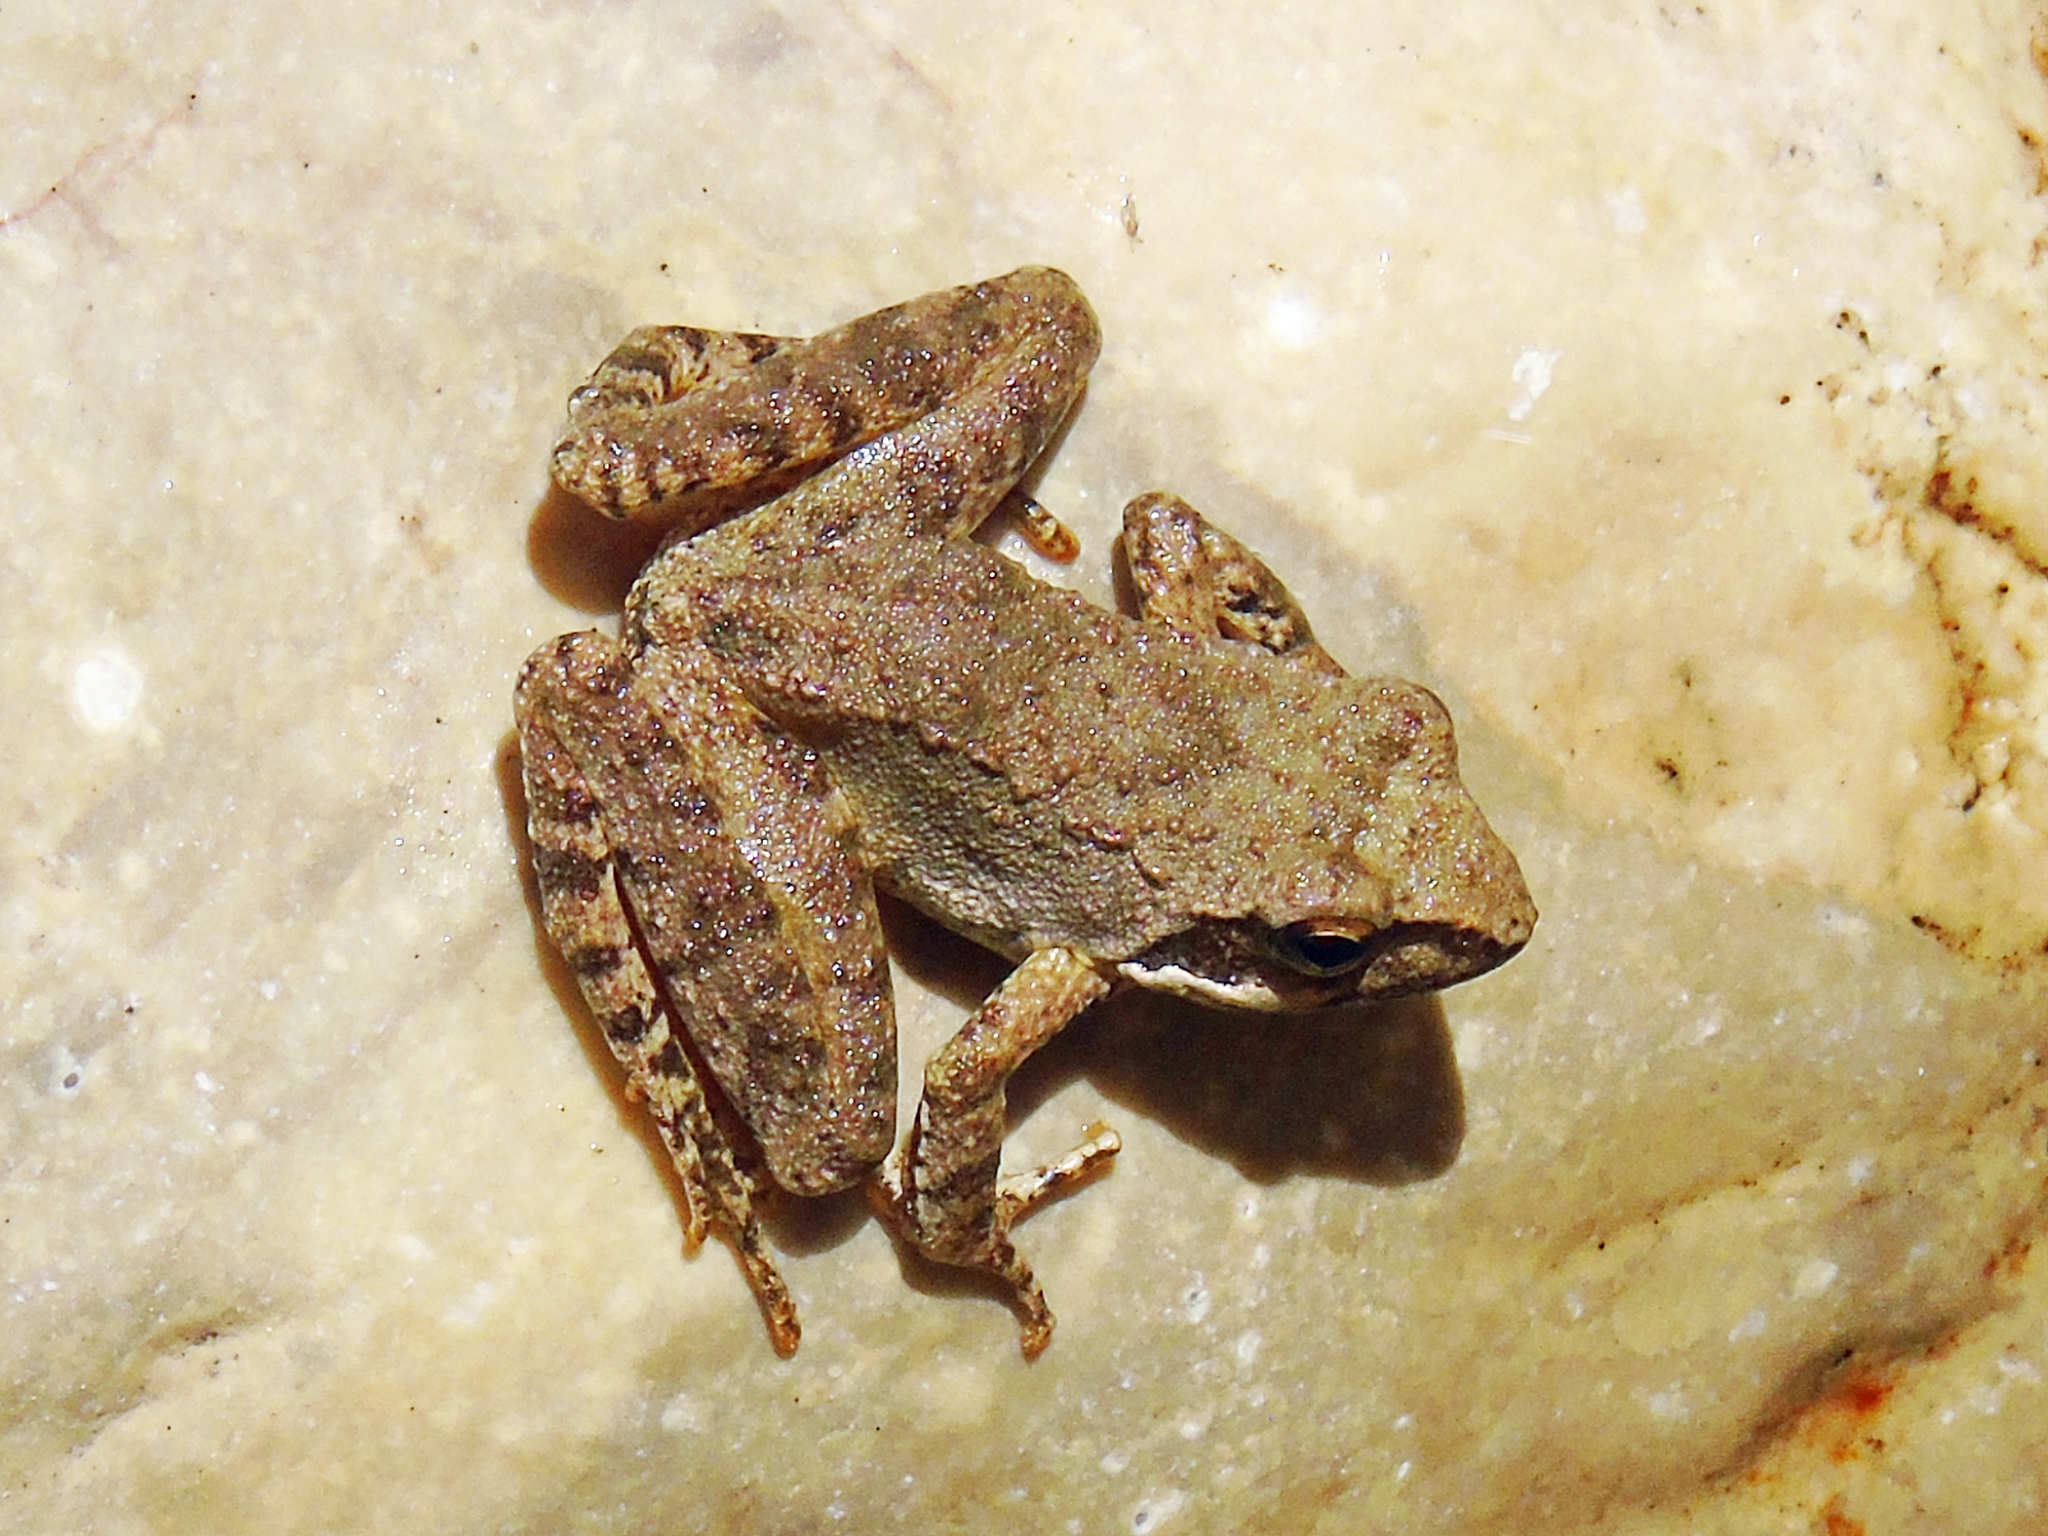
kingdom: Animalia
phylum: Chordata
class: Amphibia
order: Anura
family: Ranidae
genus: Rana
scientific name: Rana graeca
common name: Greek stream frog
